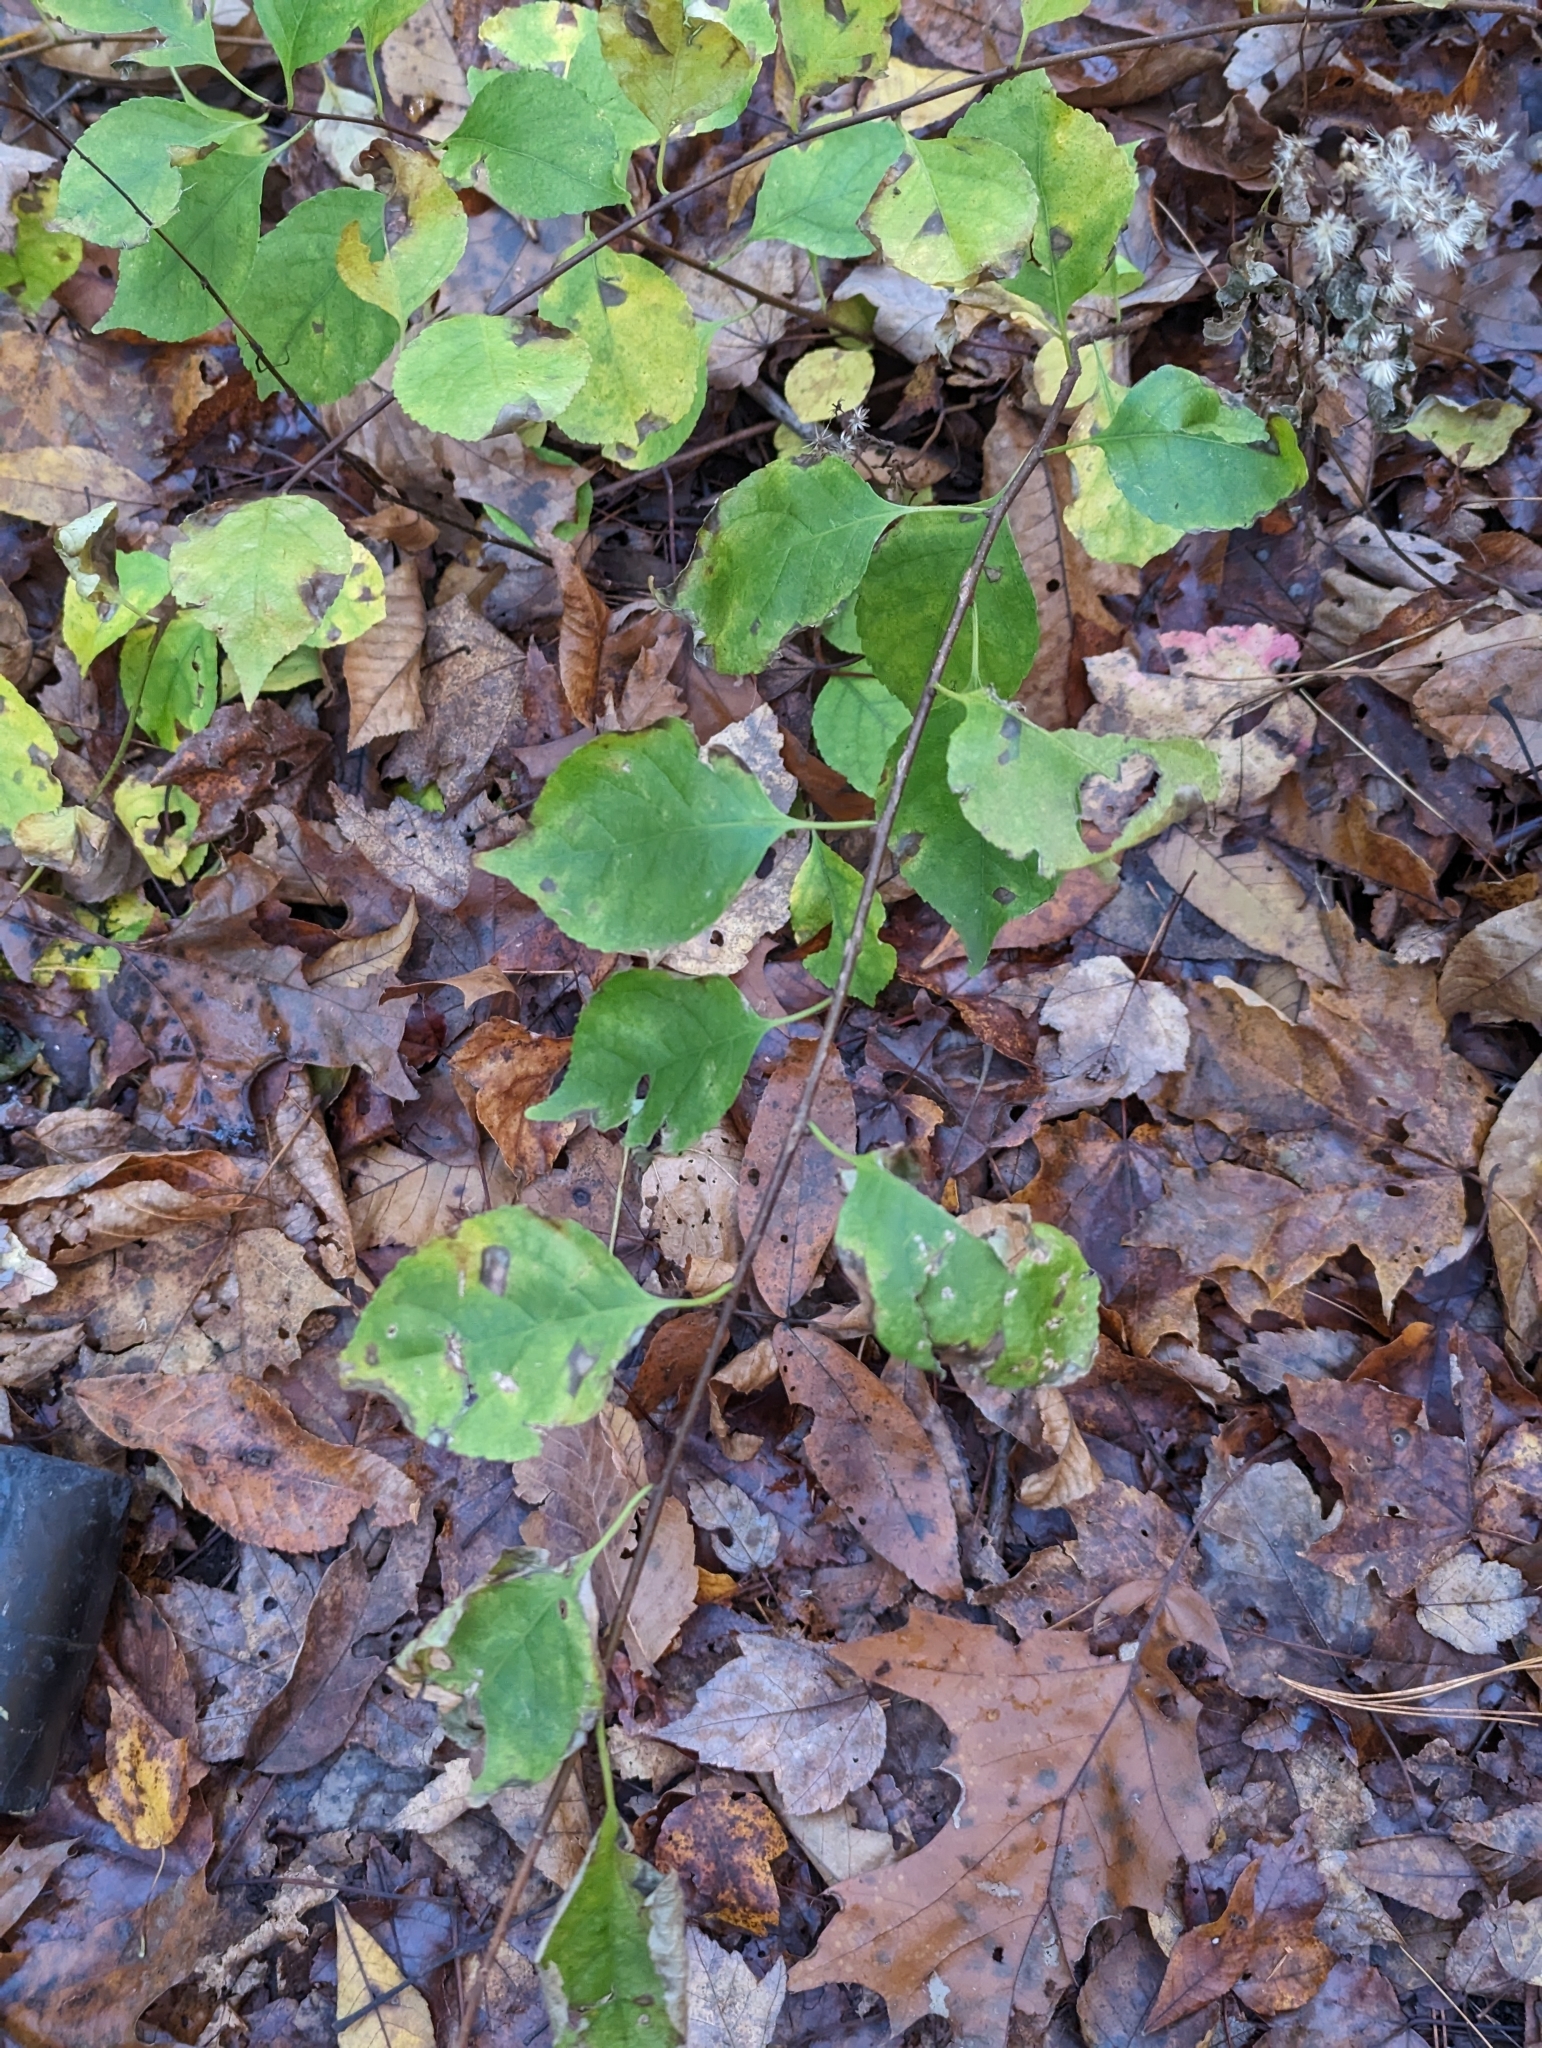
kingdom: Plantae
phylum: Tracheophyta
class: Magnoliopsida
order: Celastrales
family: Celastraceae
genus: Celastrus
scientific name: Celastrus orbiculatus
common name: Oriental bittersweet
